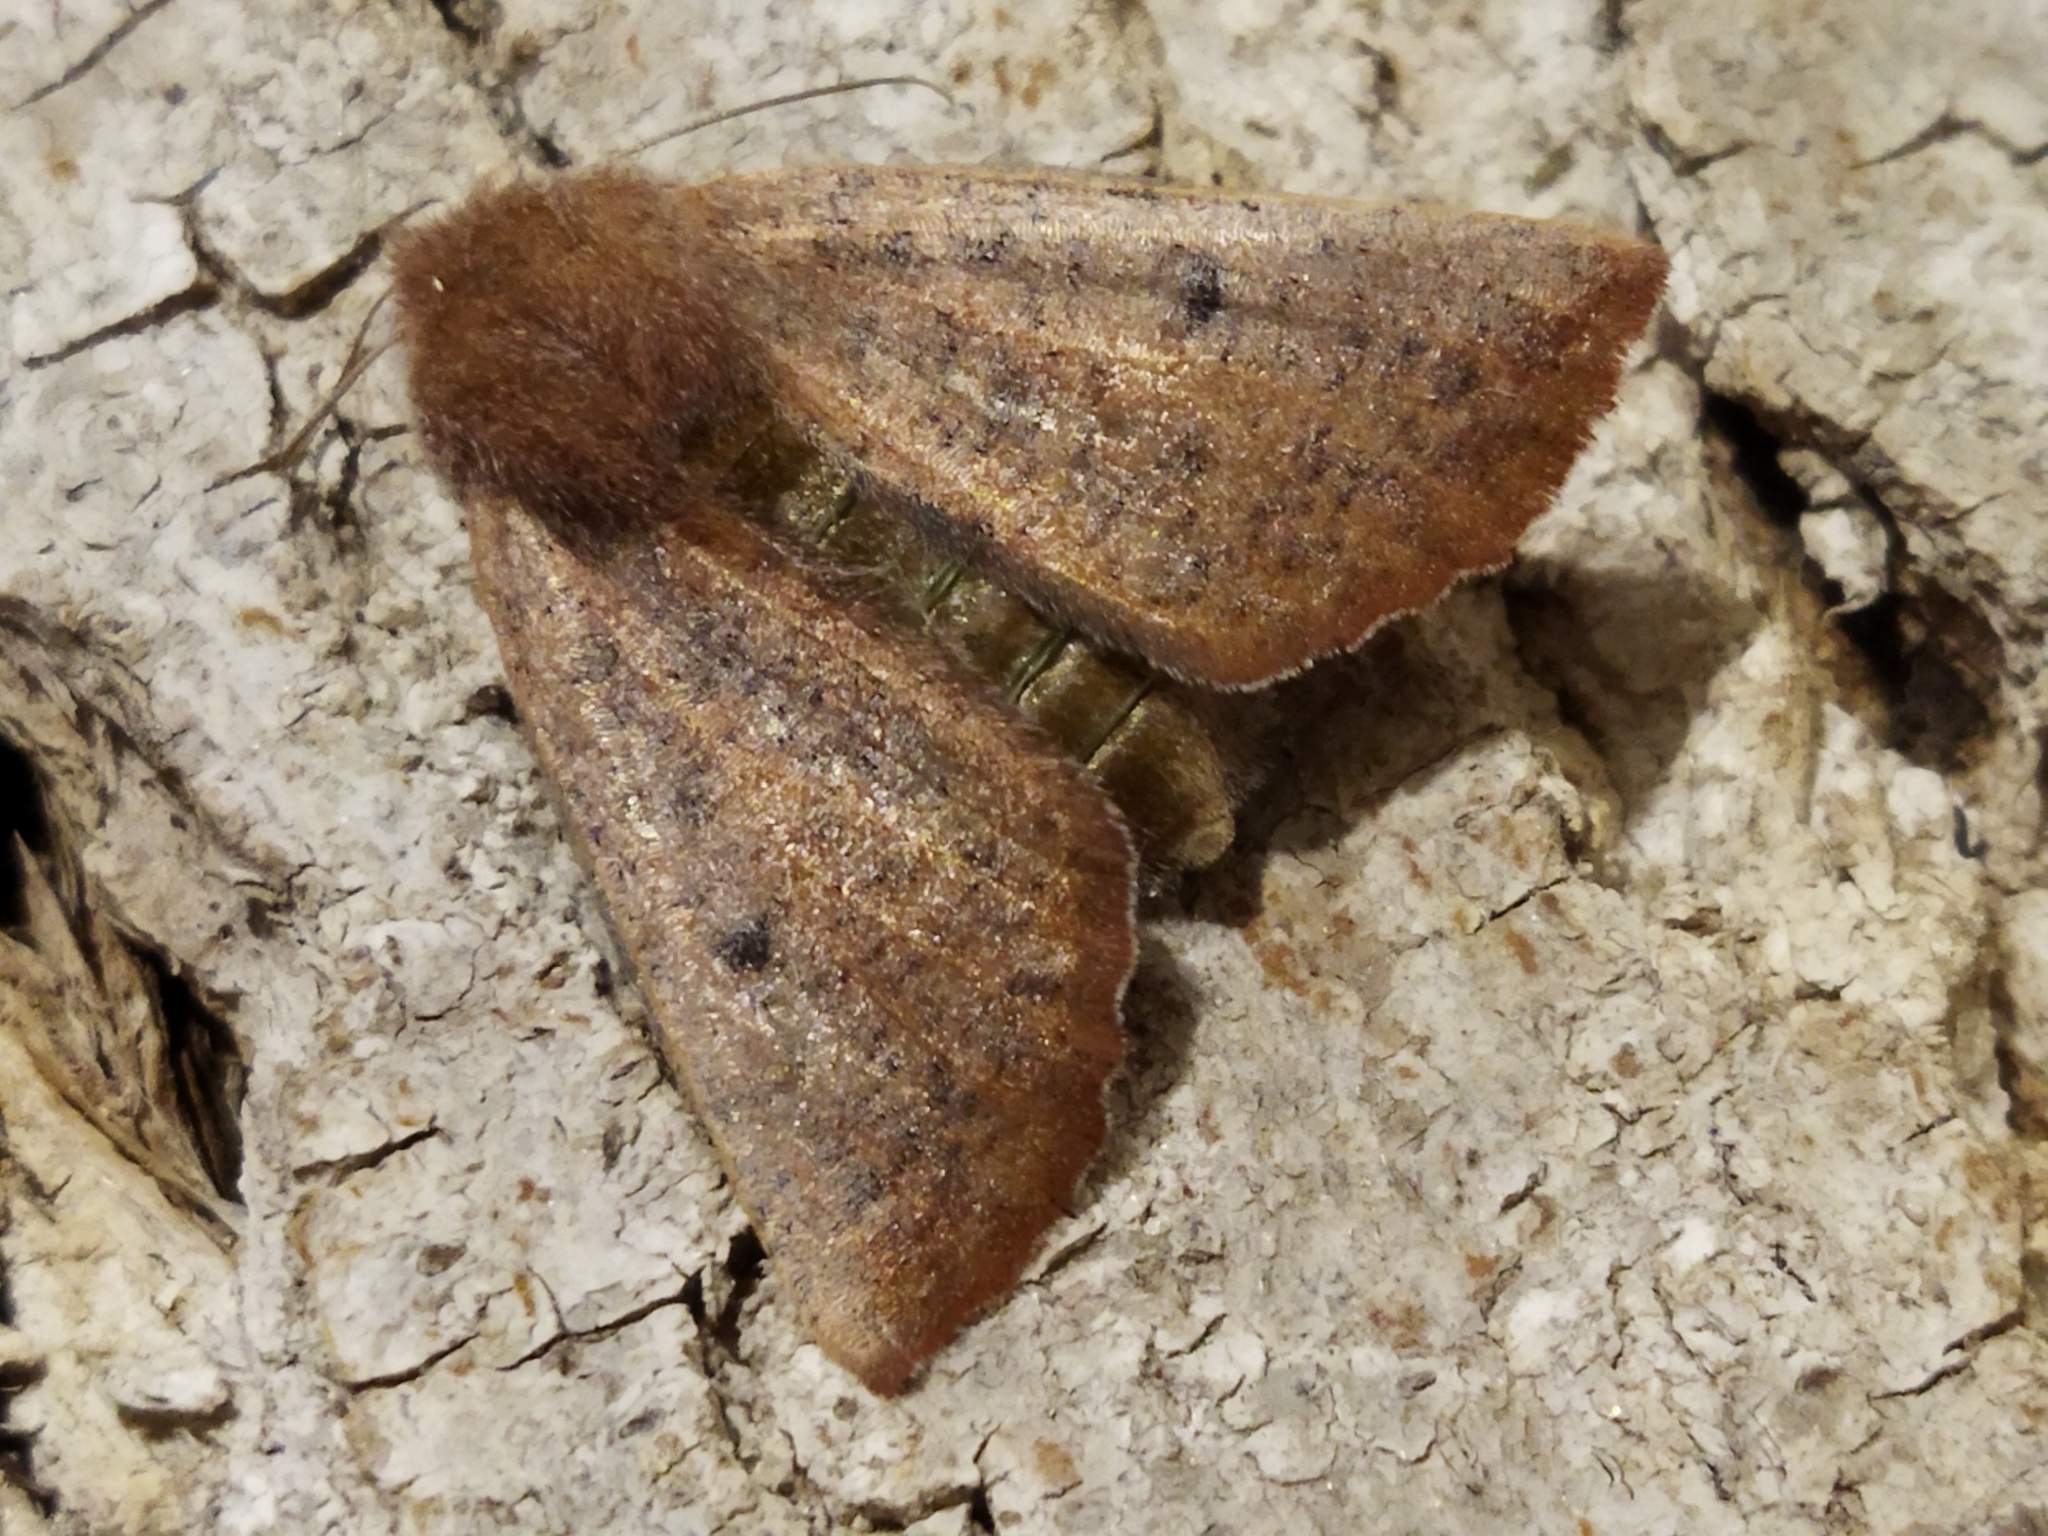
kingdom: Animalia
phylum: Arthropoda
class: Insecta
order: Lepidoptera
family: Geometridae
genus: Dasycorsa
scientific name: Dasycorsa modesta
